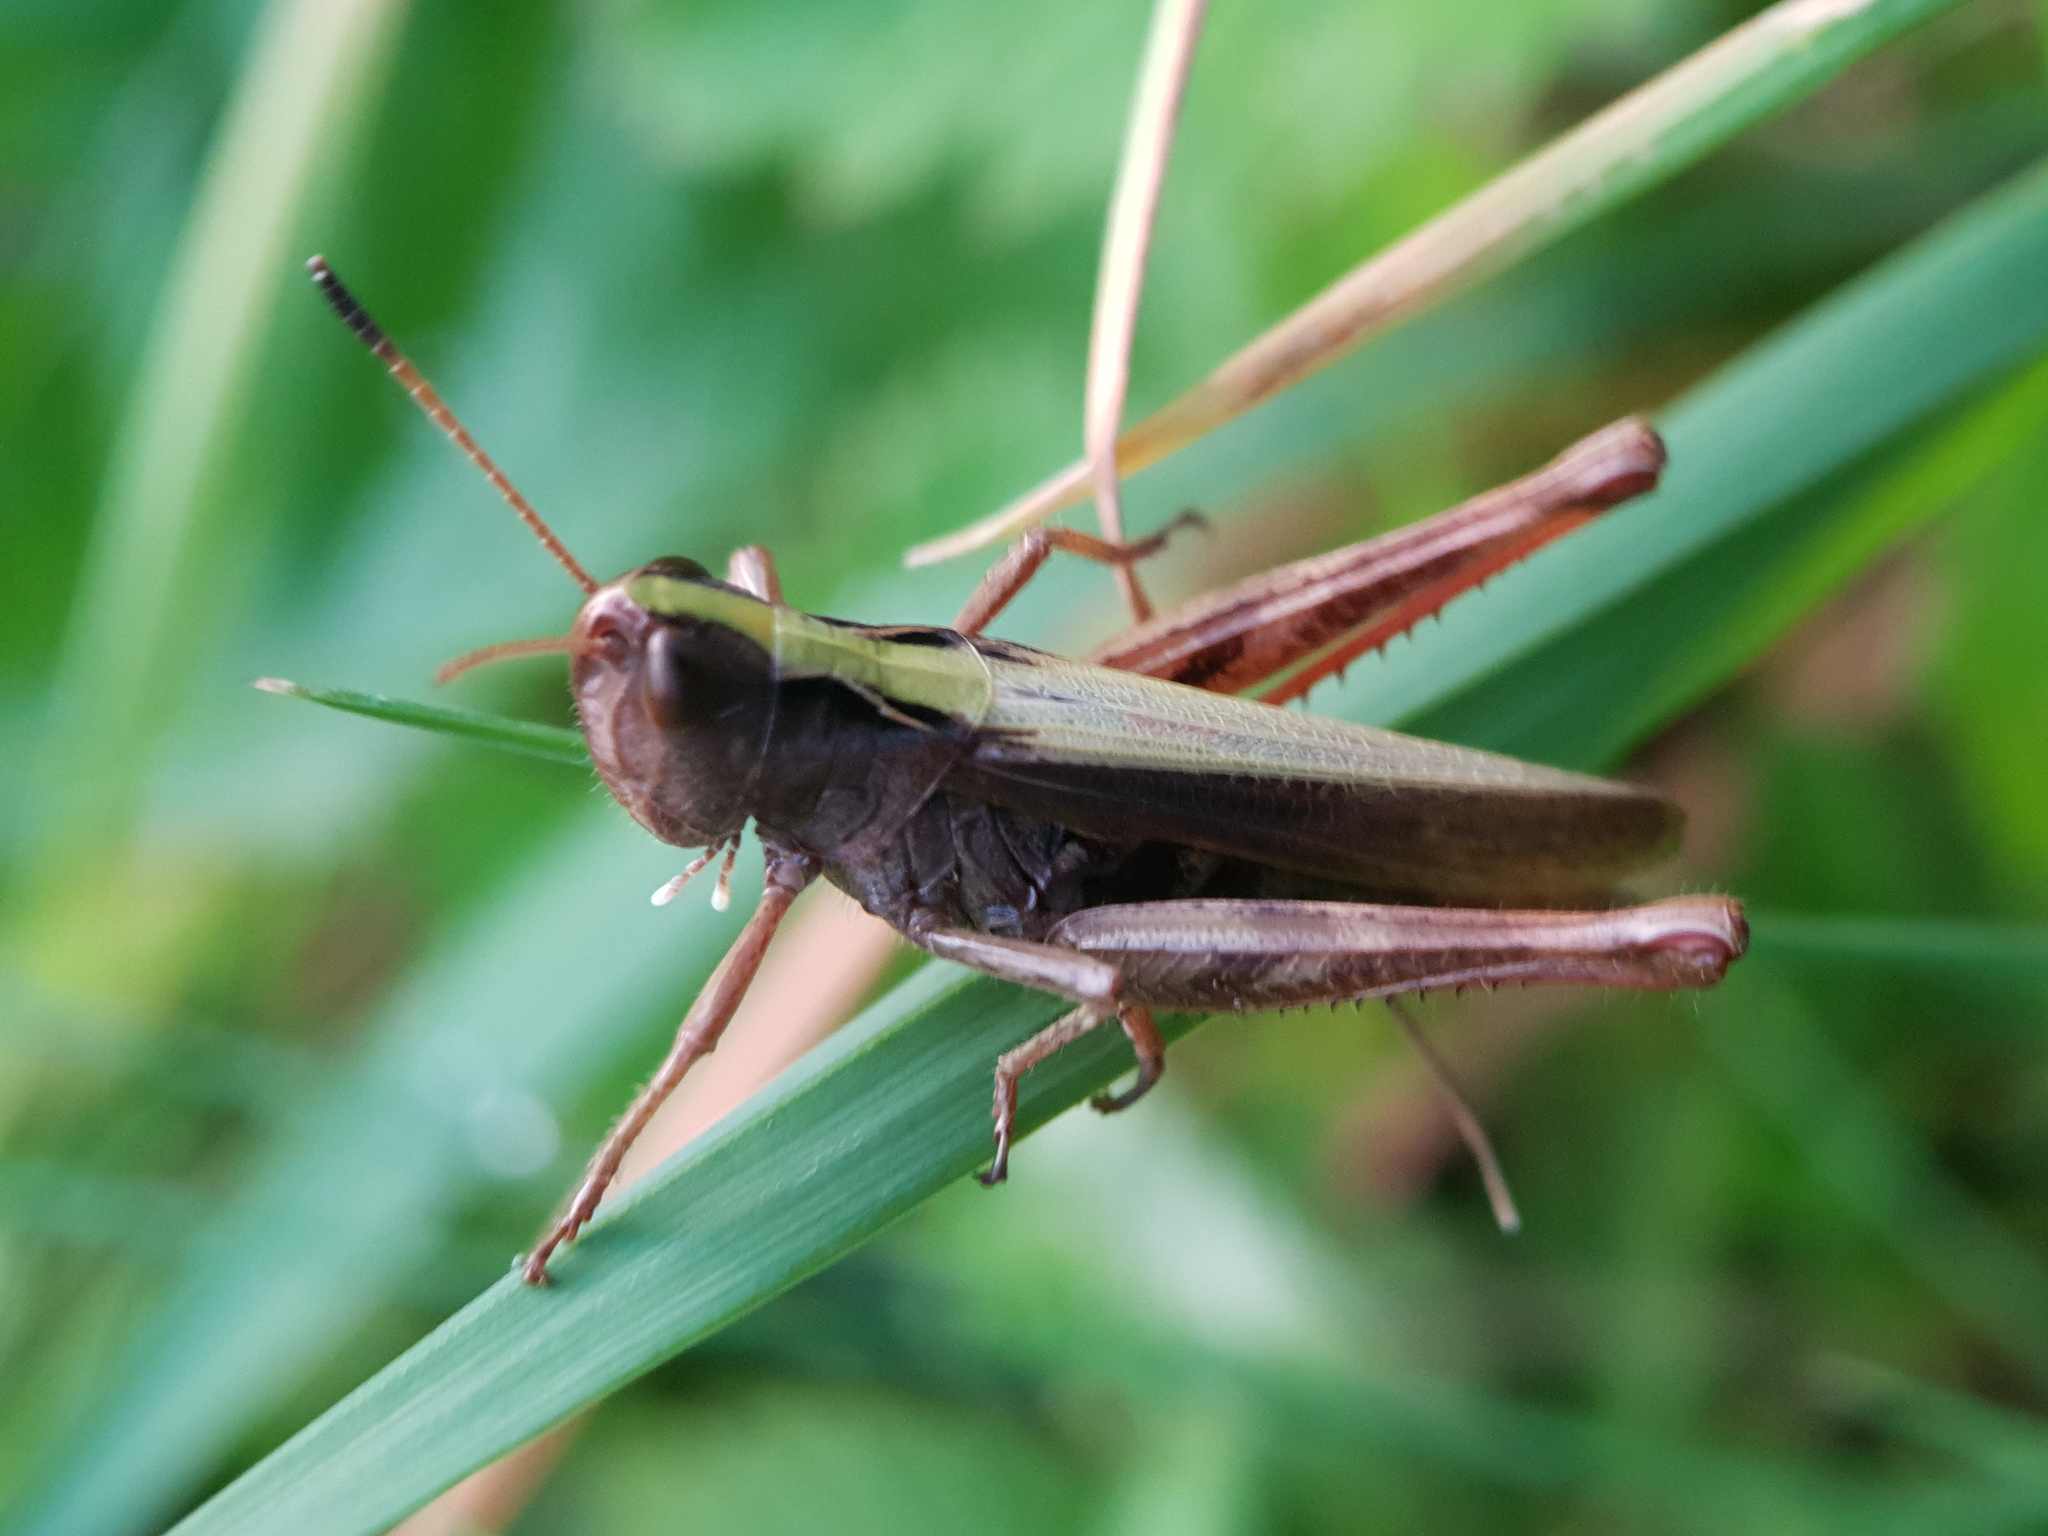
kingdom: Animalia
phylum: Arthropoda
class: Insecta
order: Orthoptera
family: Acrididae
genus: Gomphocerippus
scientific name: Gomphocerippus rufus
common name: Rufous grasshopper
